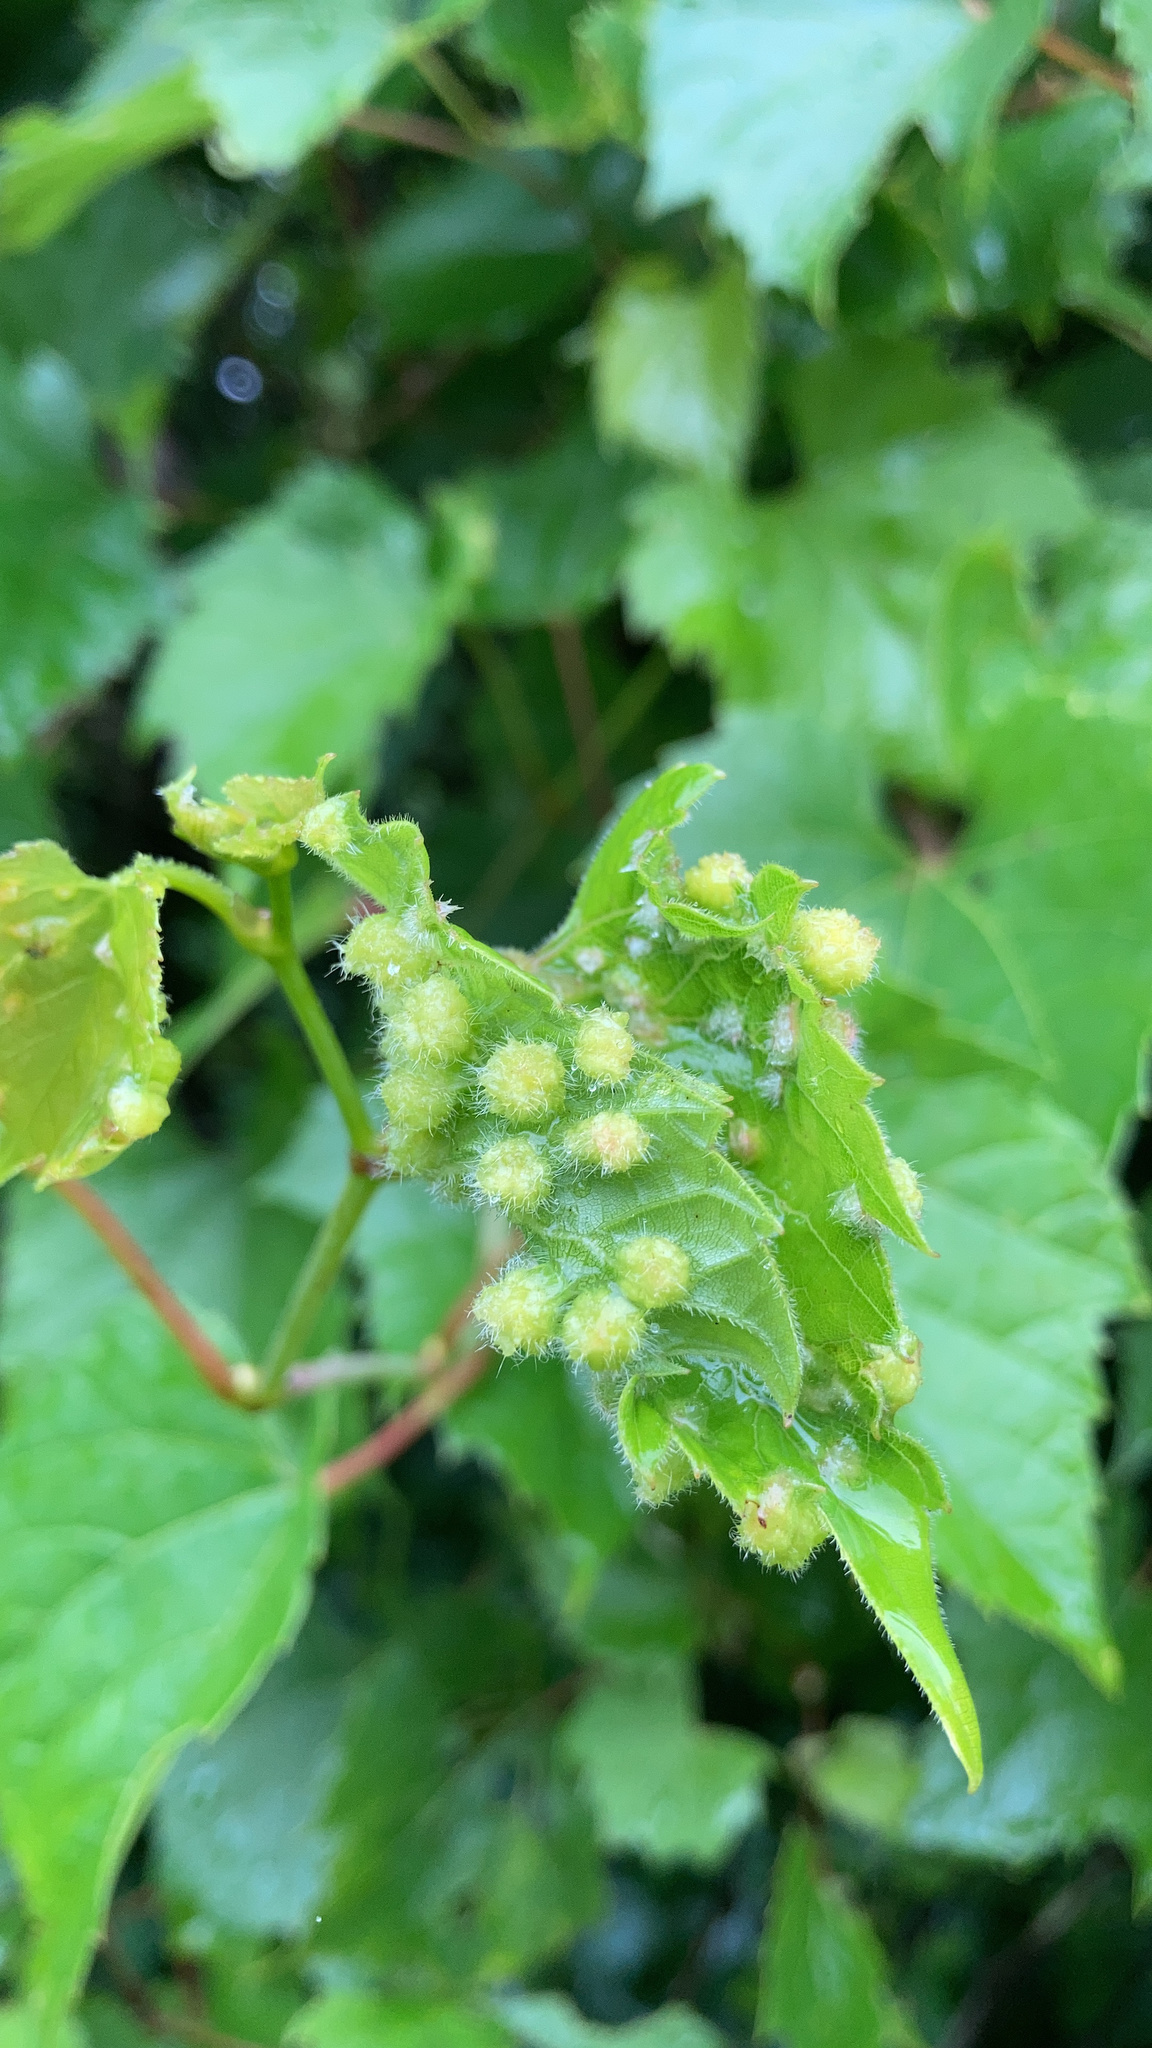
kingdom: Animalia
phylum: Arthropoda
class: Insecta
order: Hemiptera
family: Phylloxeridae
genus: Daktulosphaira
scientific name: Daktulosphaira vitifoliae
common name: Grape phylloxera
